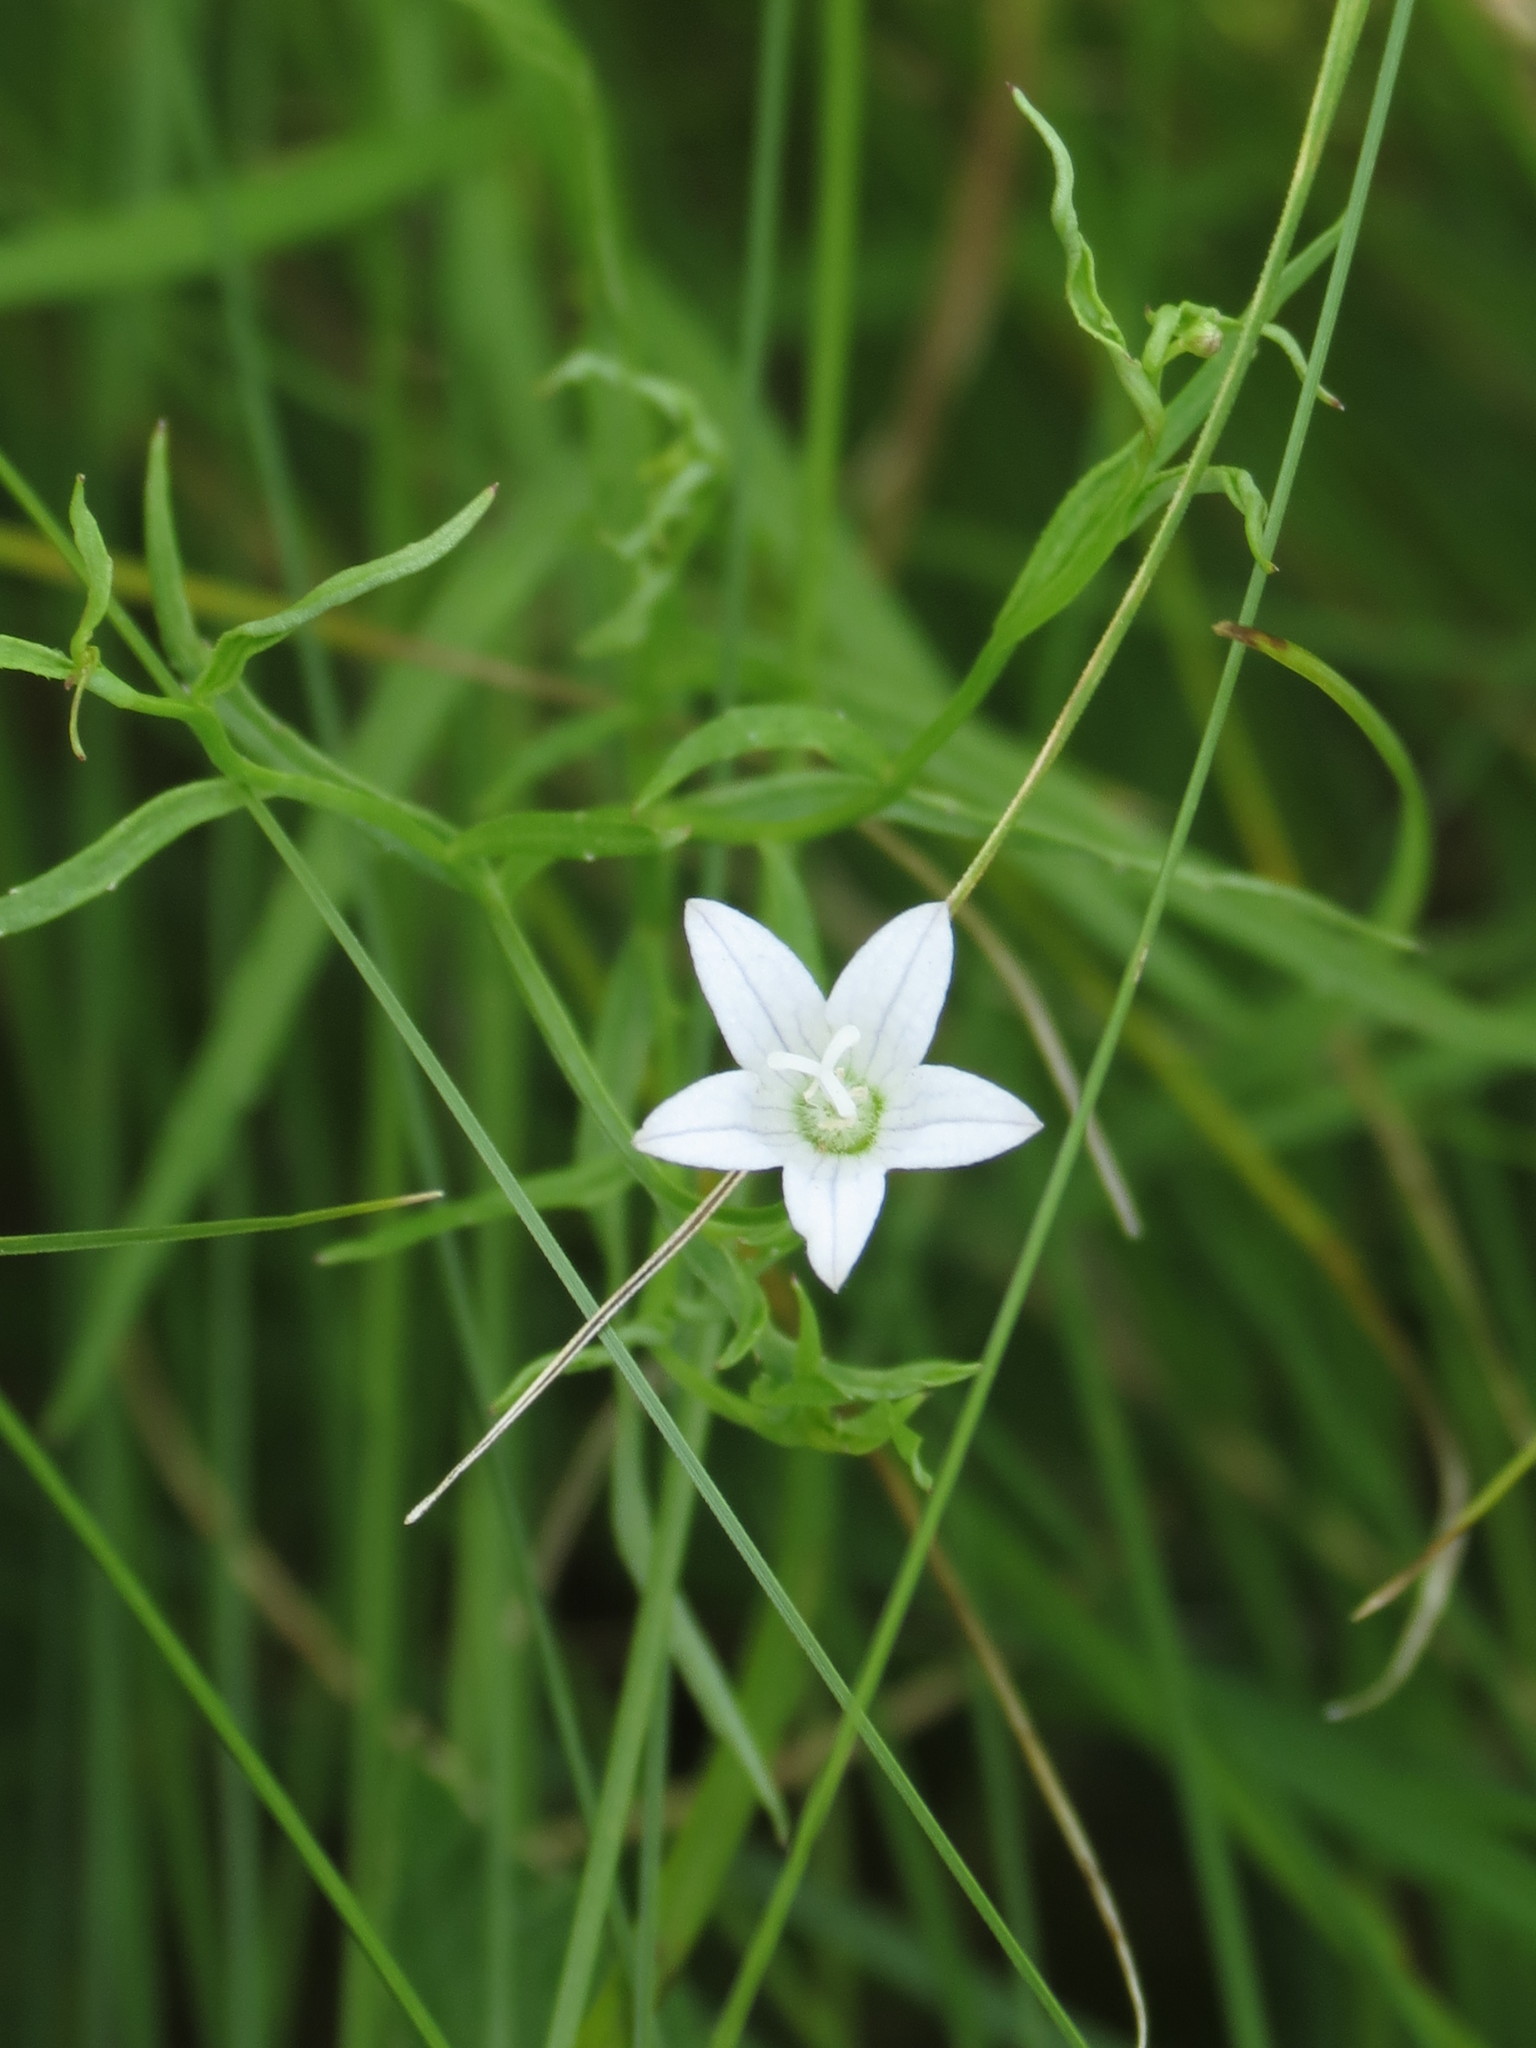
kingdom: Plantae
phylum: Tracheophyta
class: Magnoliopsida
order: Asterales
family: Campanulaceae
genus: Palustricodon
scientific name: Palustricodon aparinoides
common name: Bedstraw bellflower
